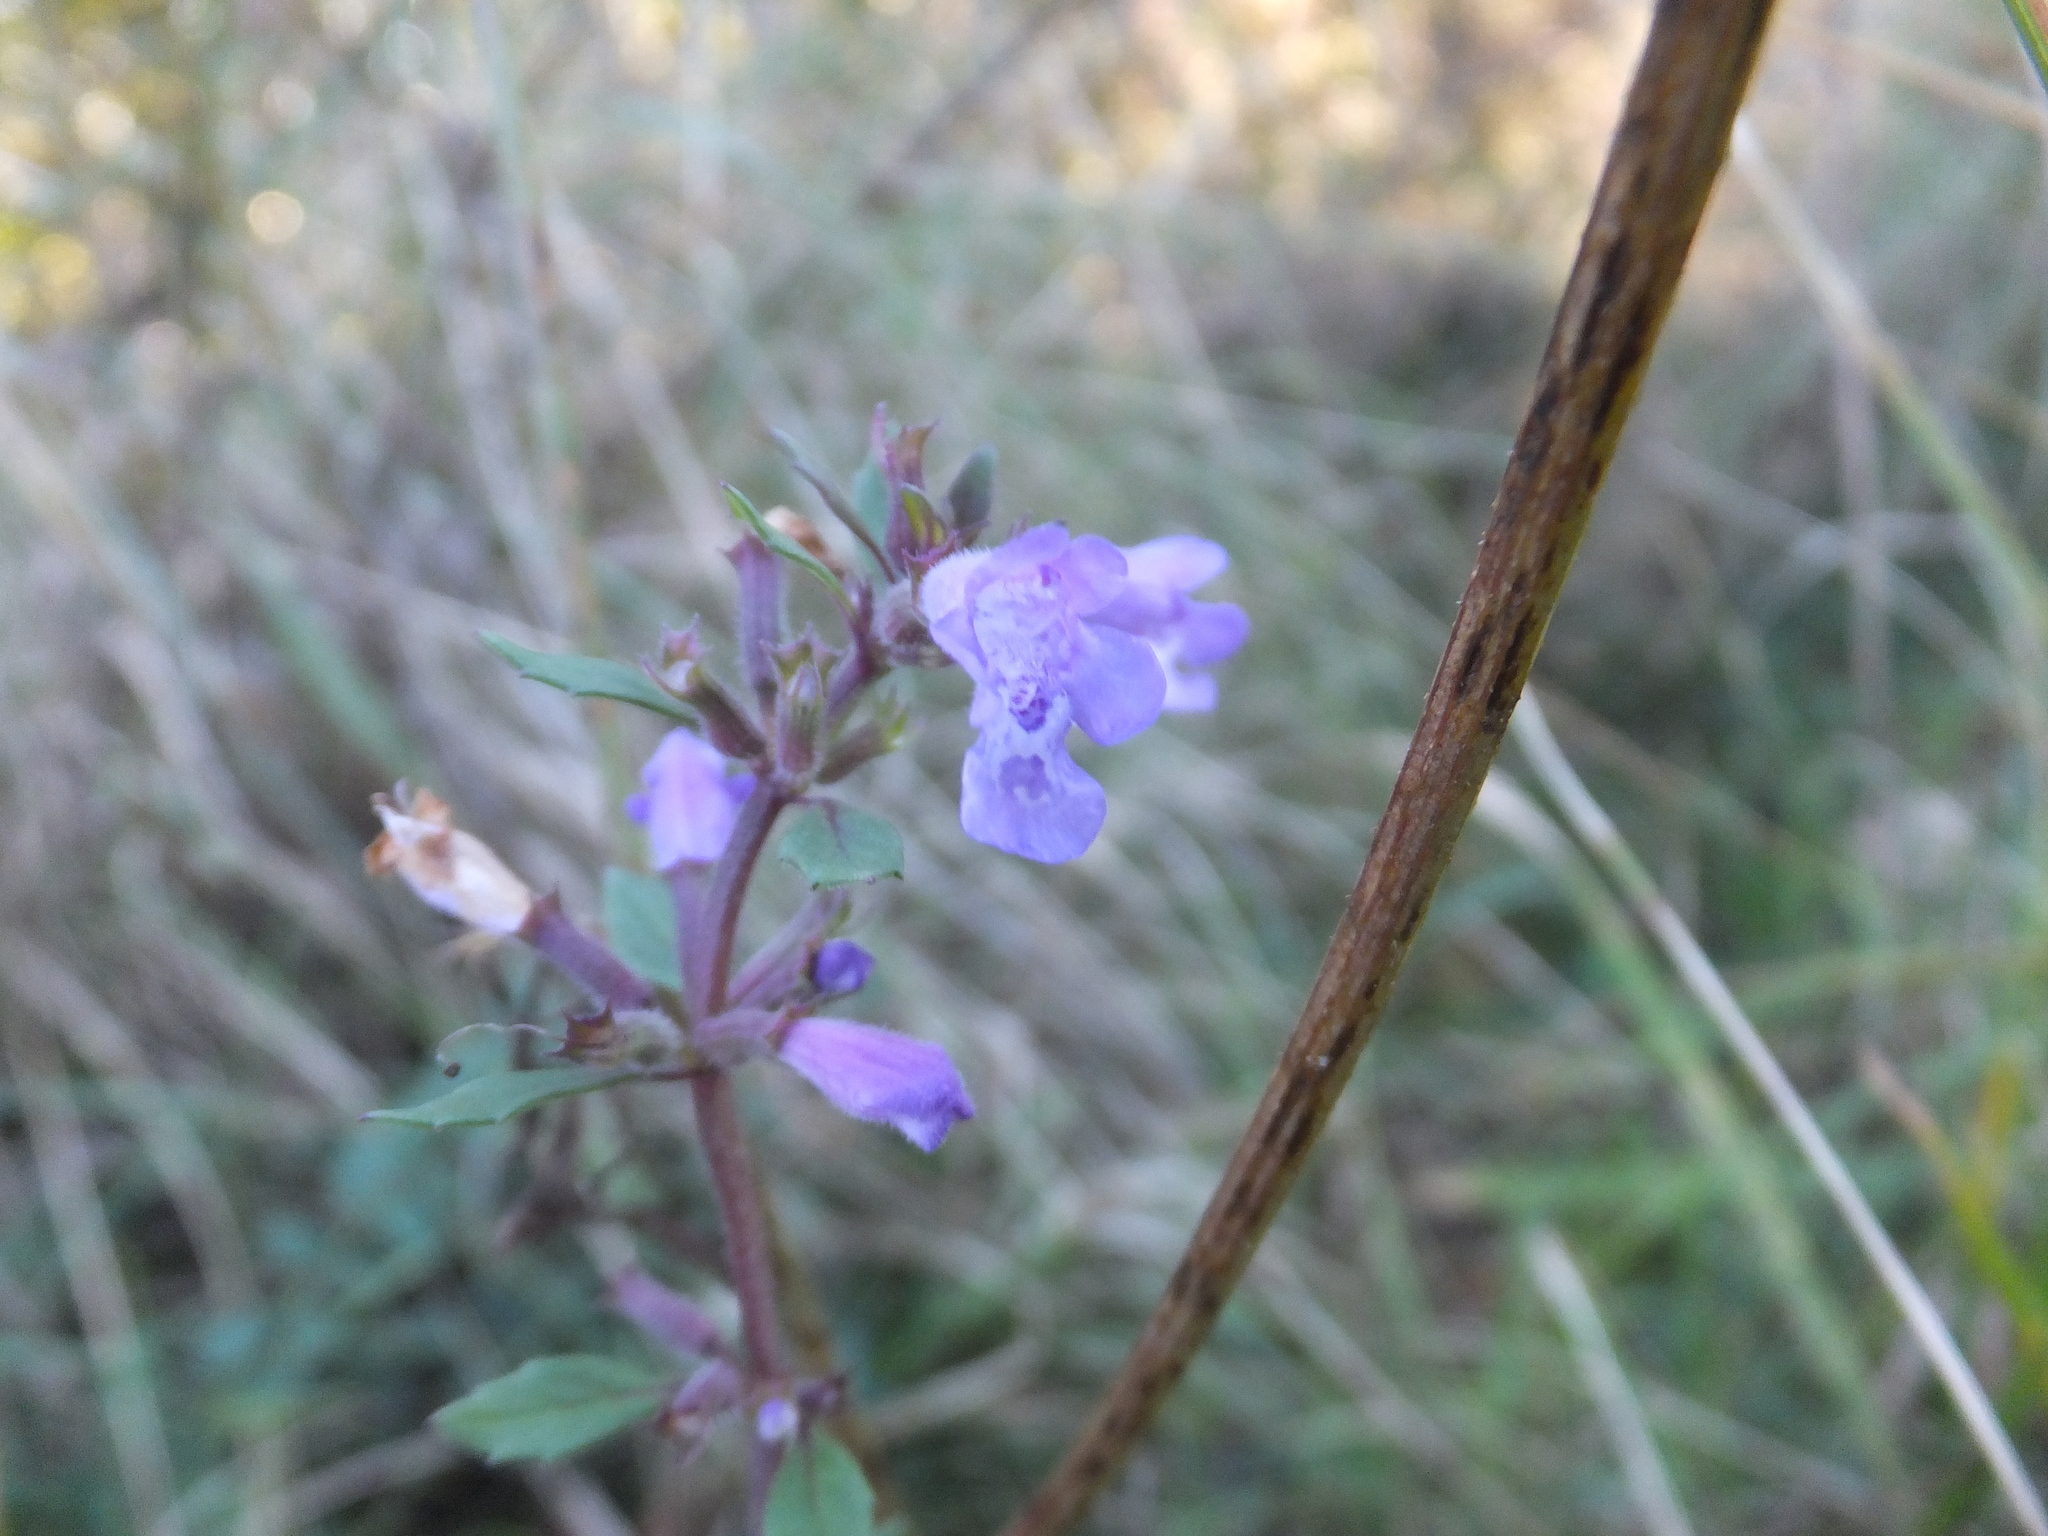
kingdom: Plantae
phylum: Tracheophyta
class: Magnoliopsida
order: Lamiales
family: Lamiaceae
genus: Clinopodium
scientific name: Clinopodium acinos
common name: Basil thyme
